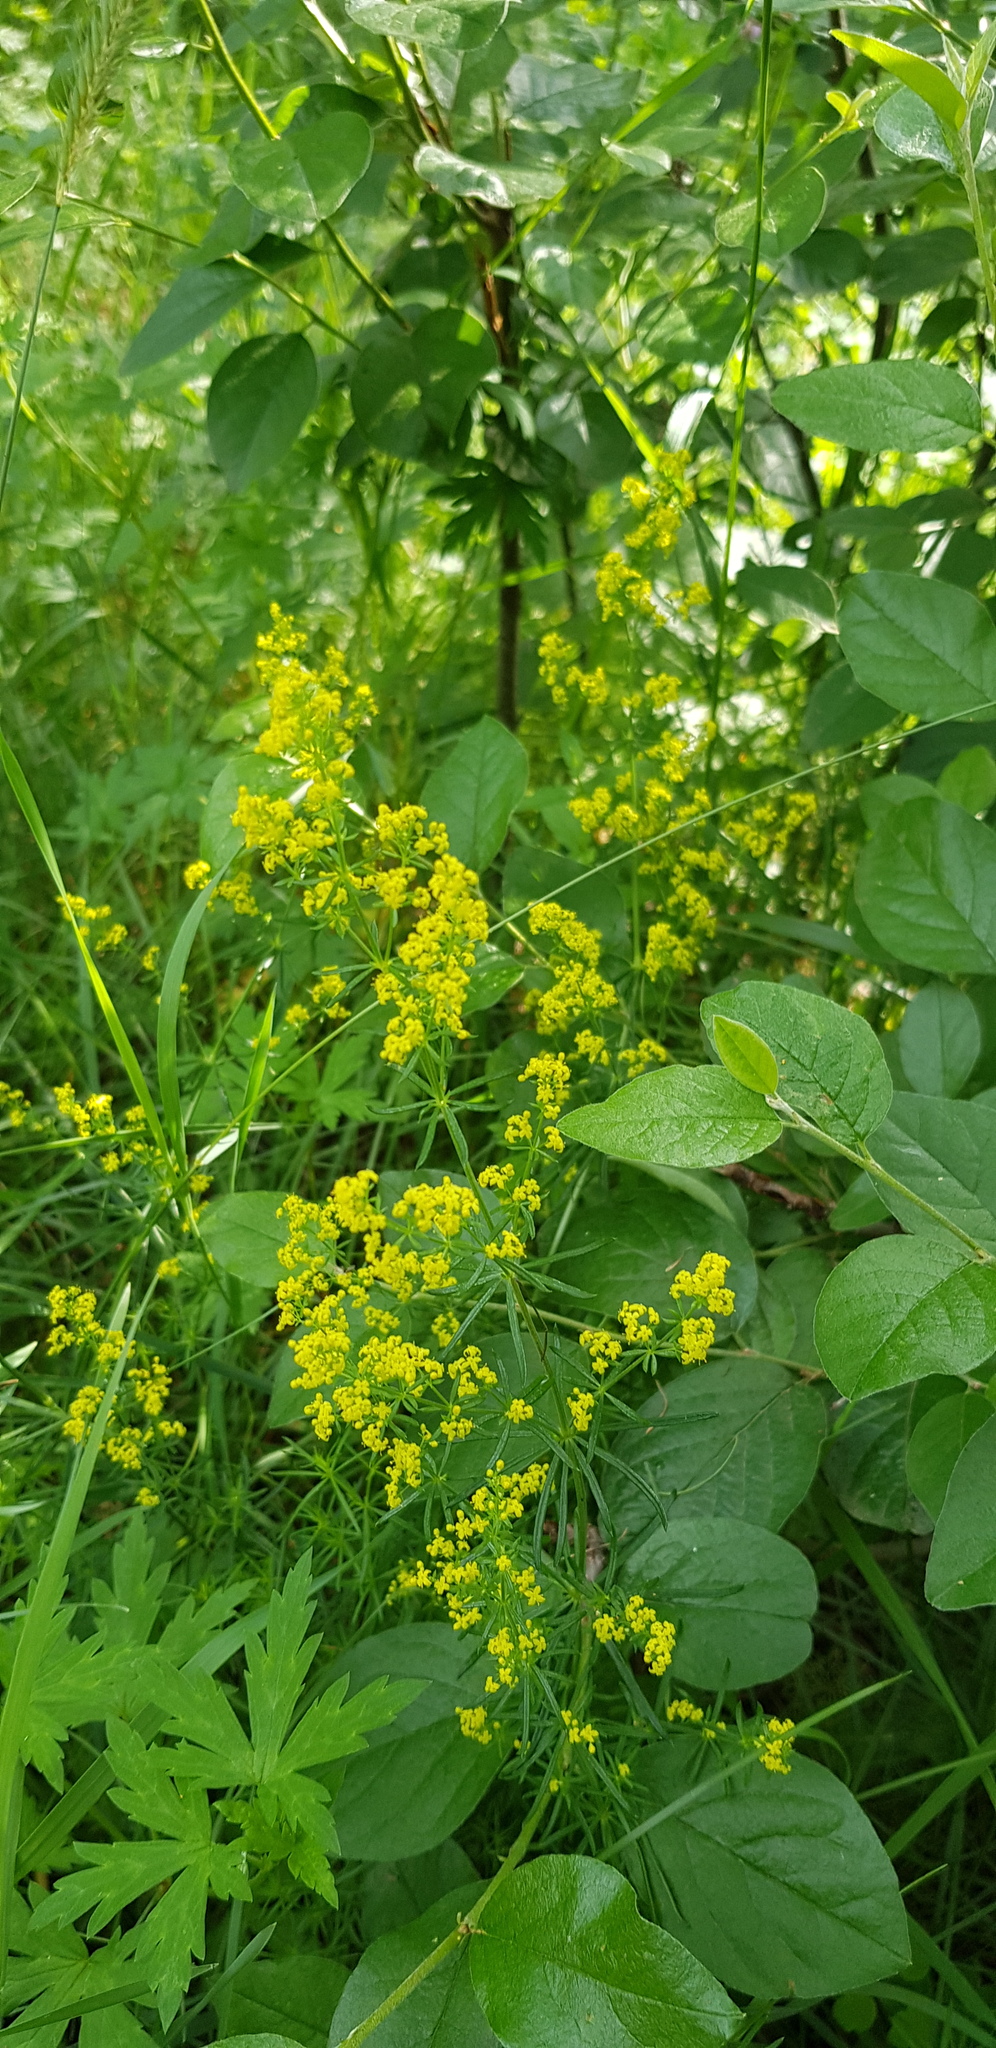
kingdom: Plantae
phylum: Tracheophyta
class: Magnoliopsida
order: Gentianales
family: Rubiaceae
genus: Galium
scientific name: Galium verum
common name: Lady's bedstraw
